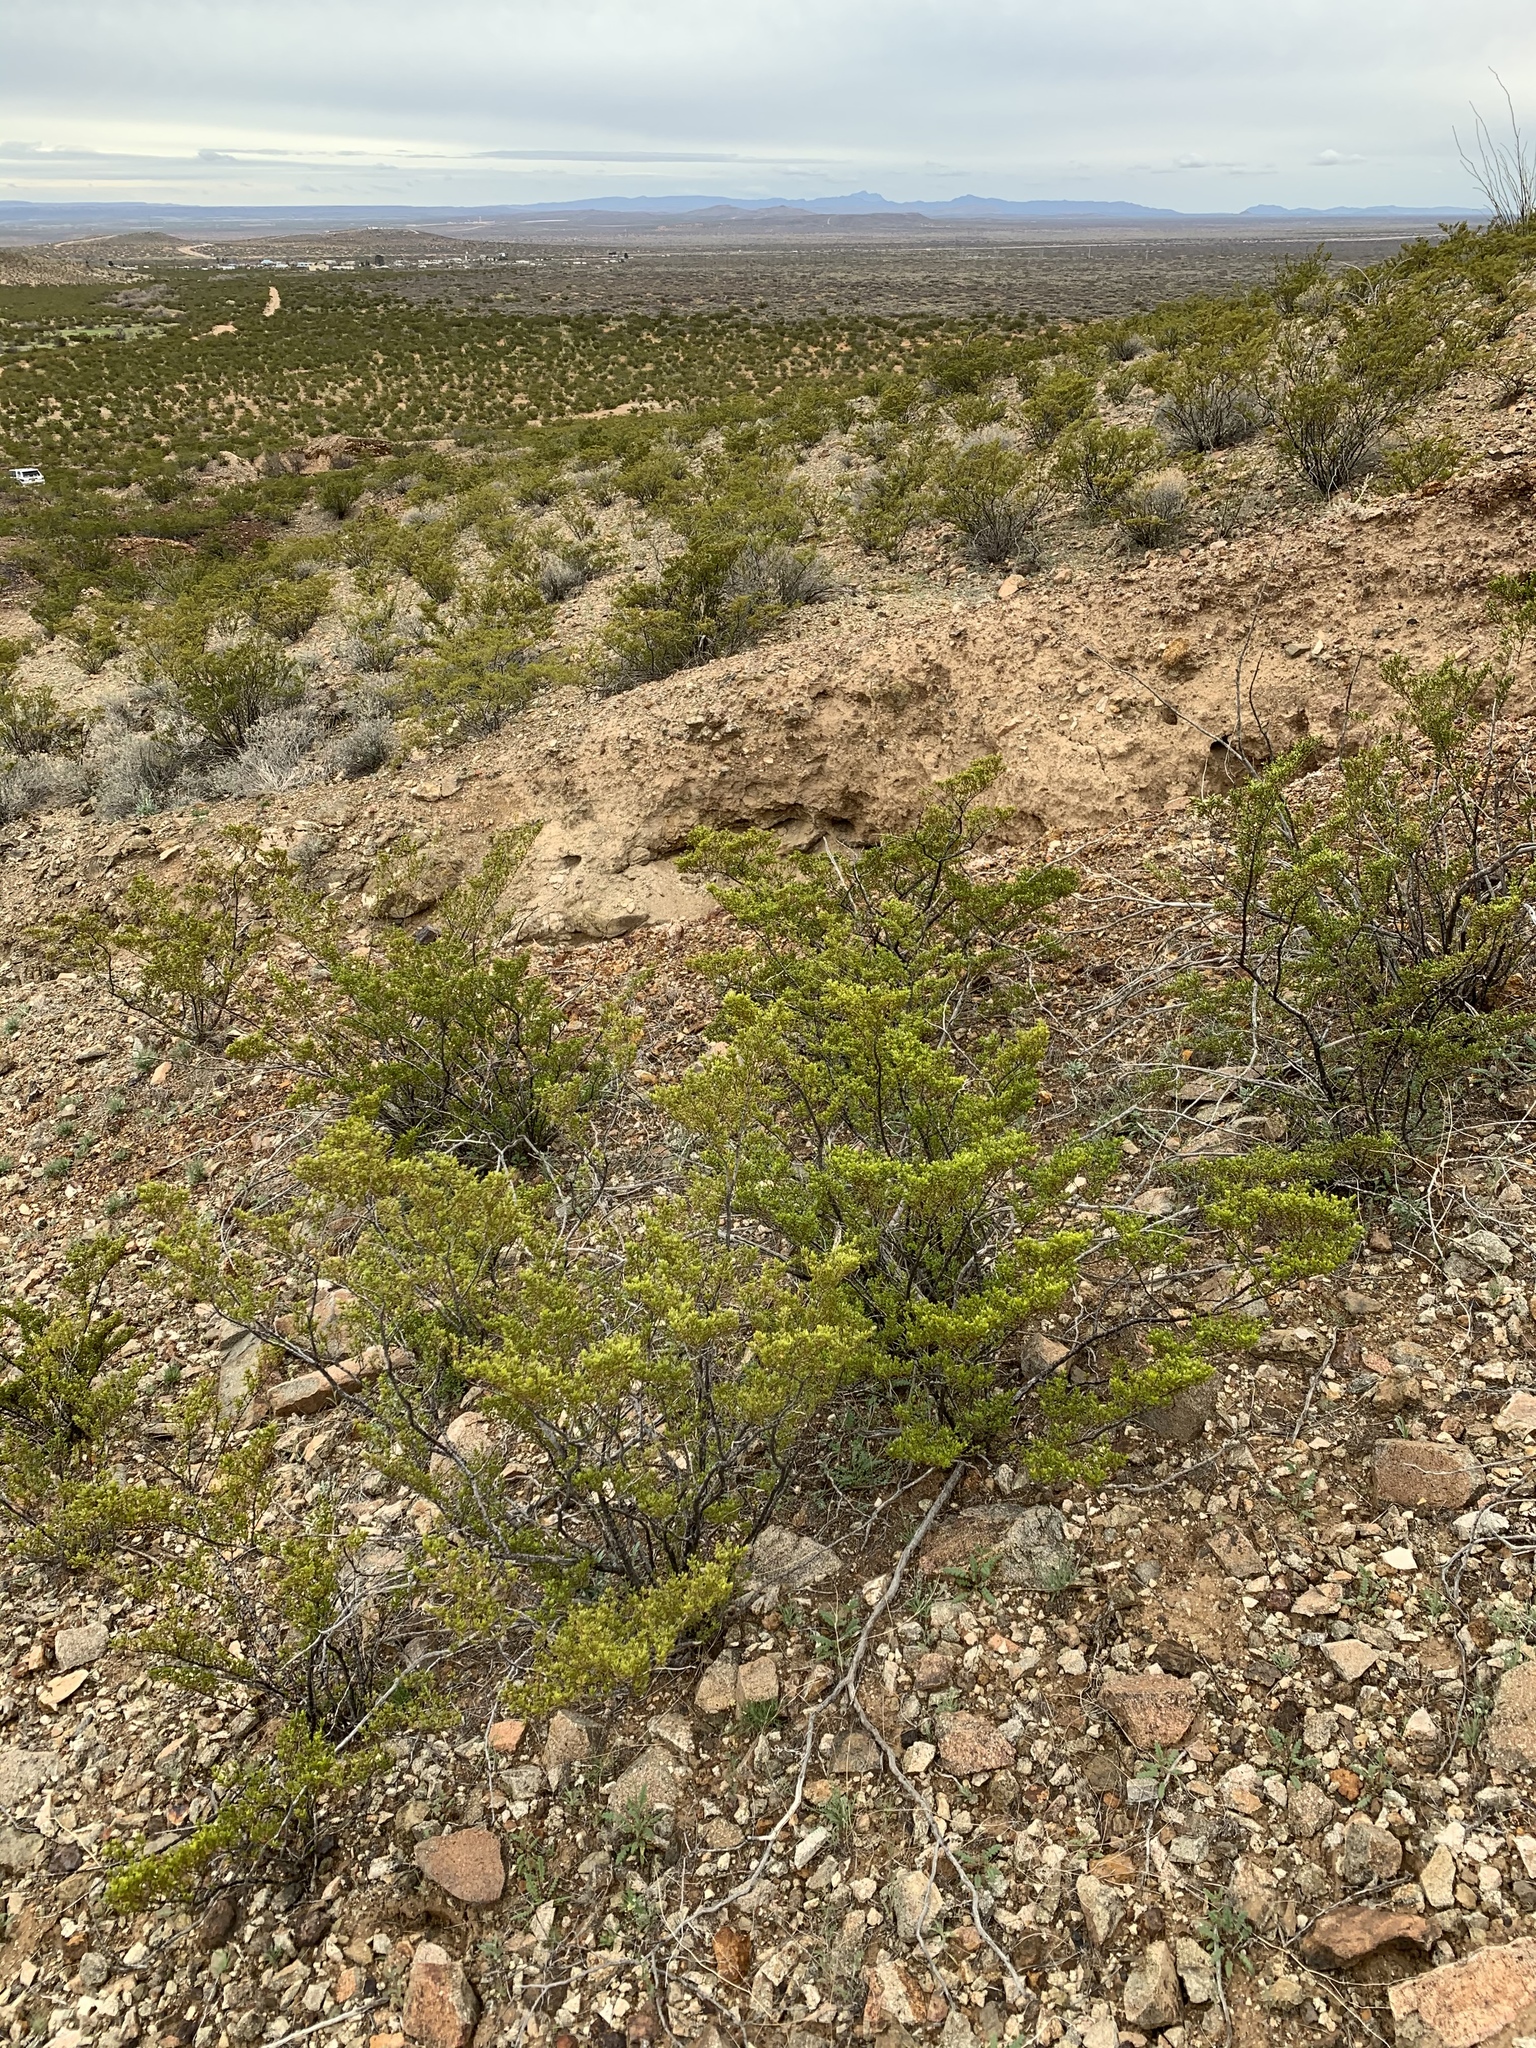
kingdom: Plantae
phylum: Tracheophyta
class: Magnoliopsida
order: Zygophyllales
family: Zygophyllaceae
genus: Larrea
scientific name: Larrea tridentata
